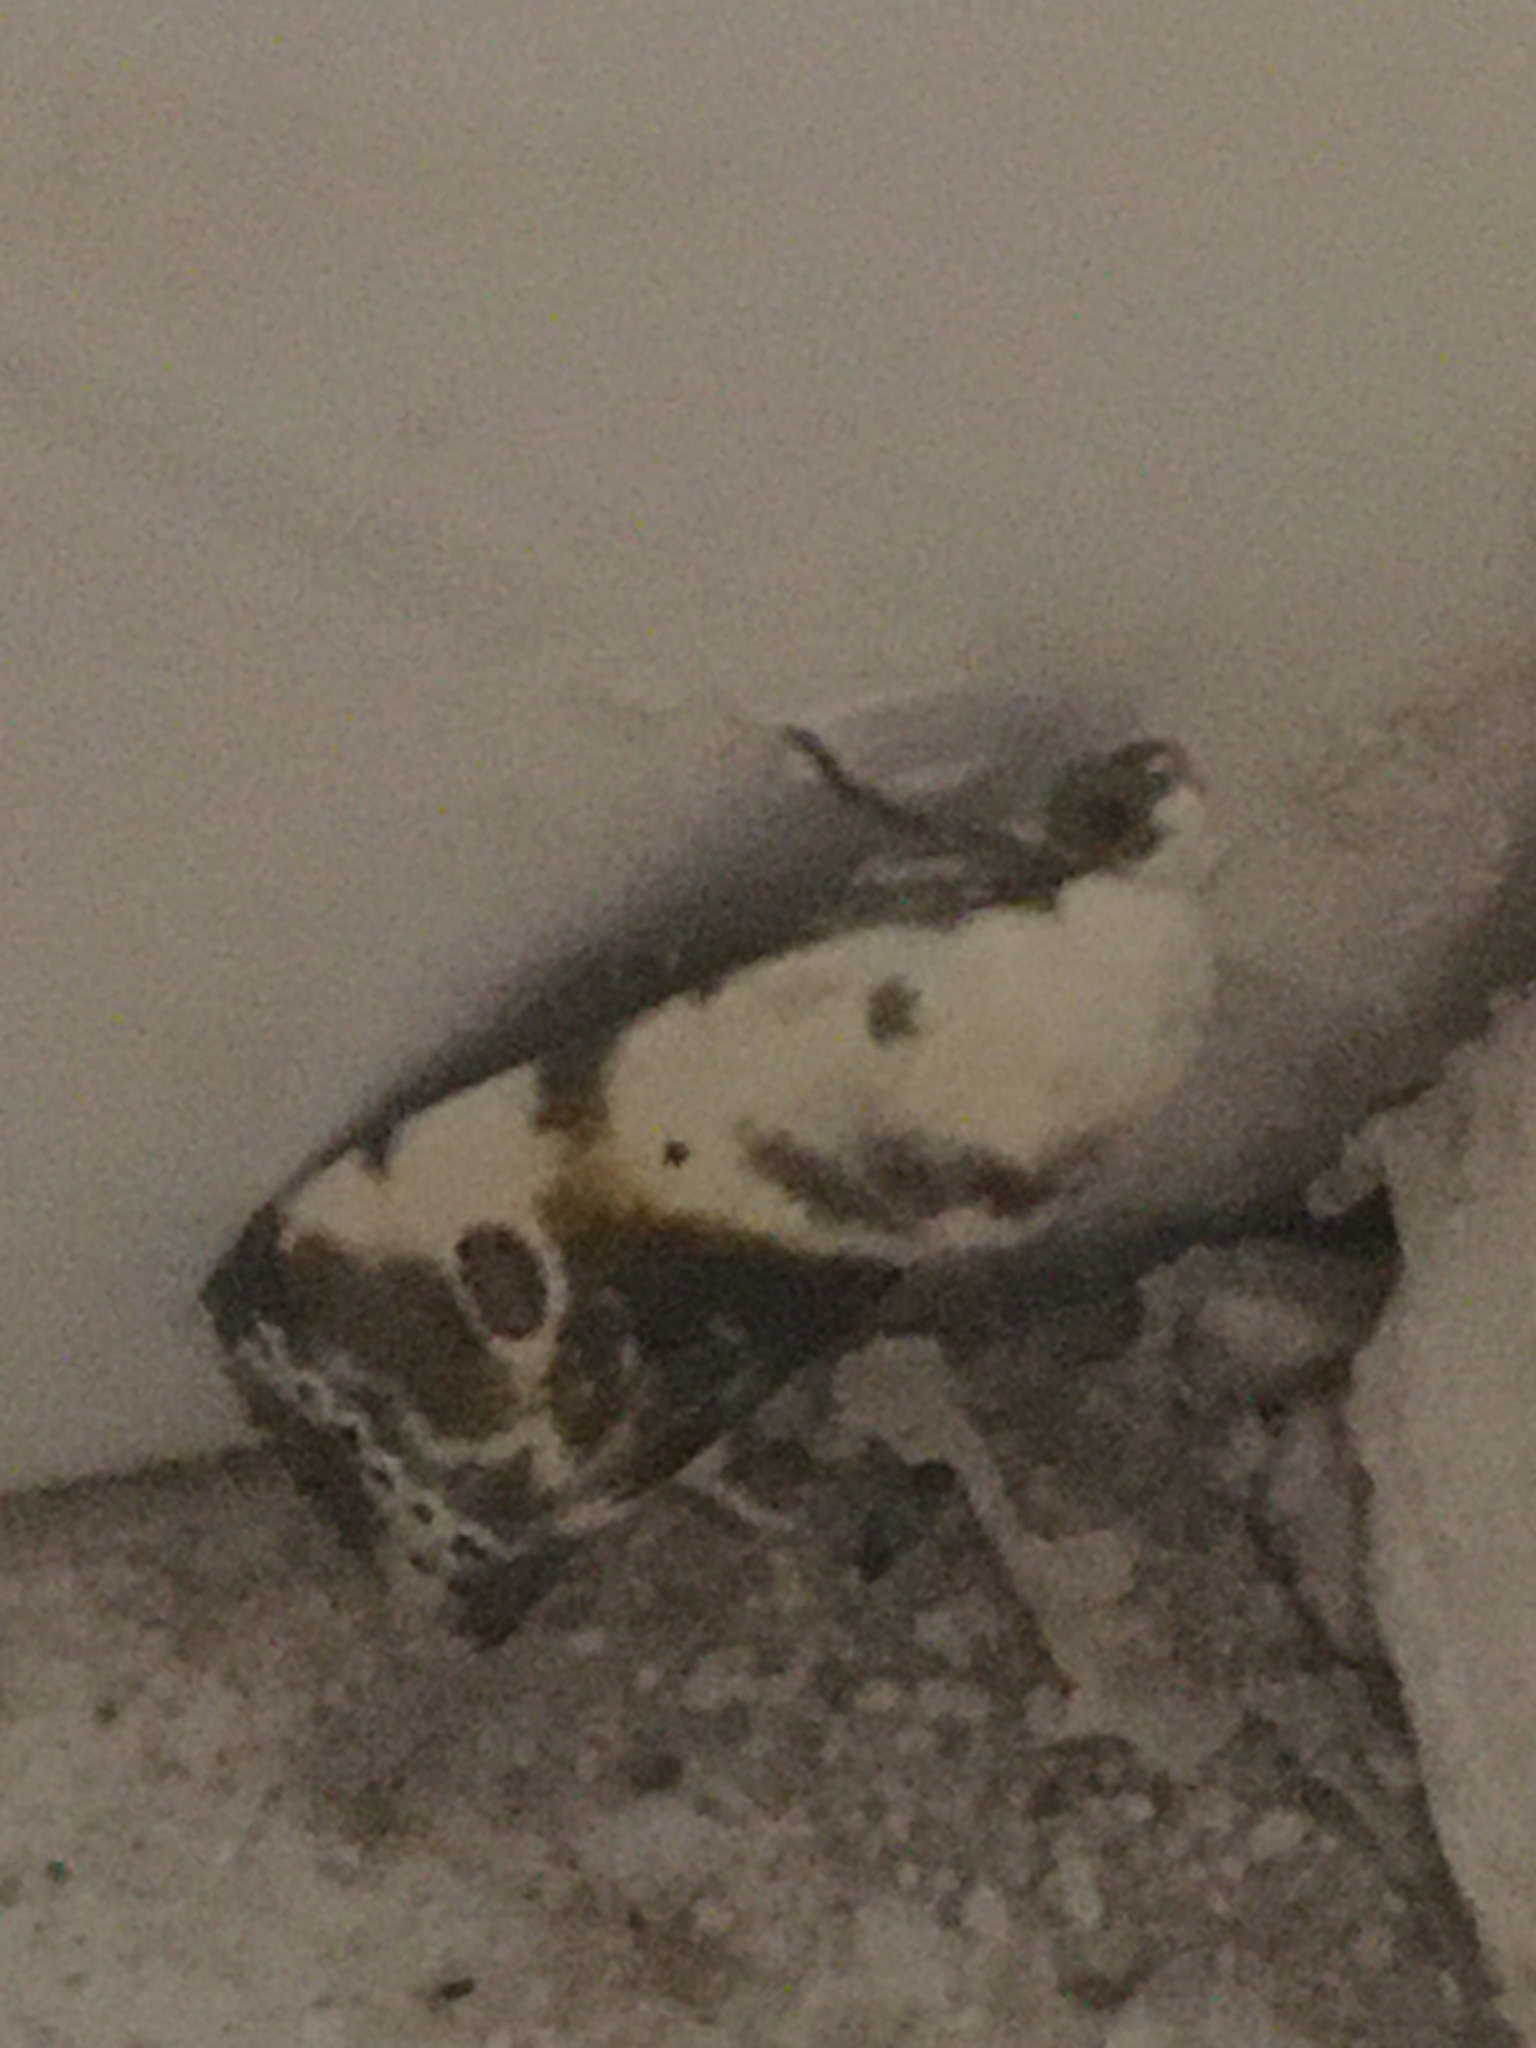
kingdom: Animalia
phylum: Arthropoda
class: Insecta
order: Lepidoptera
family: Noctuidae
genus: Acontia
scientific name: Acontia candefacta
